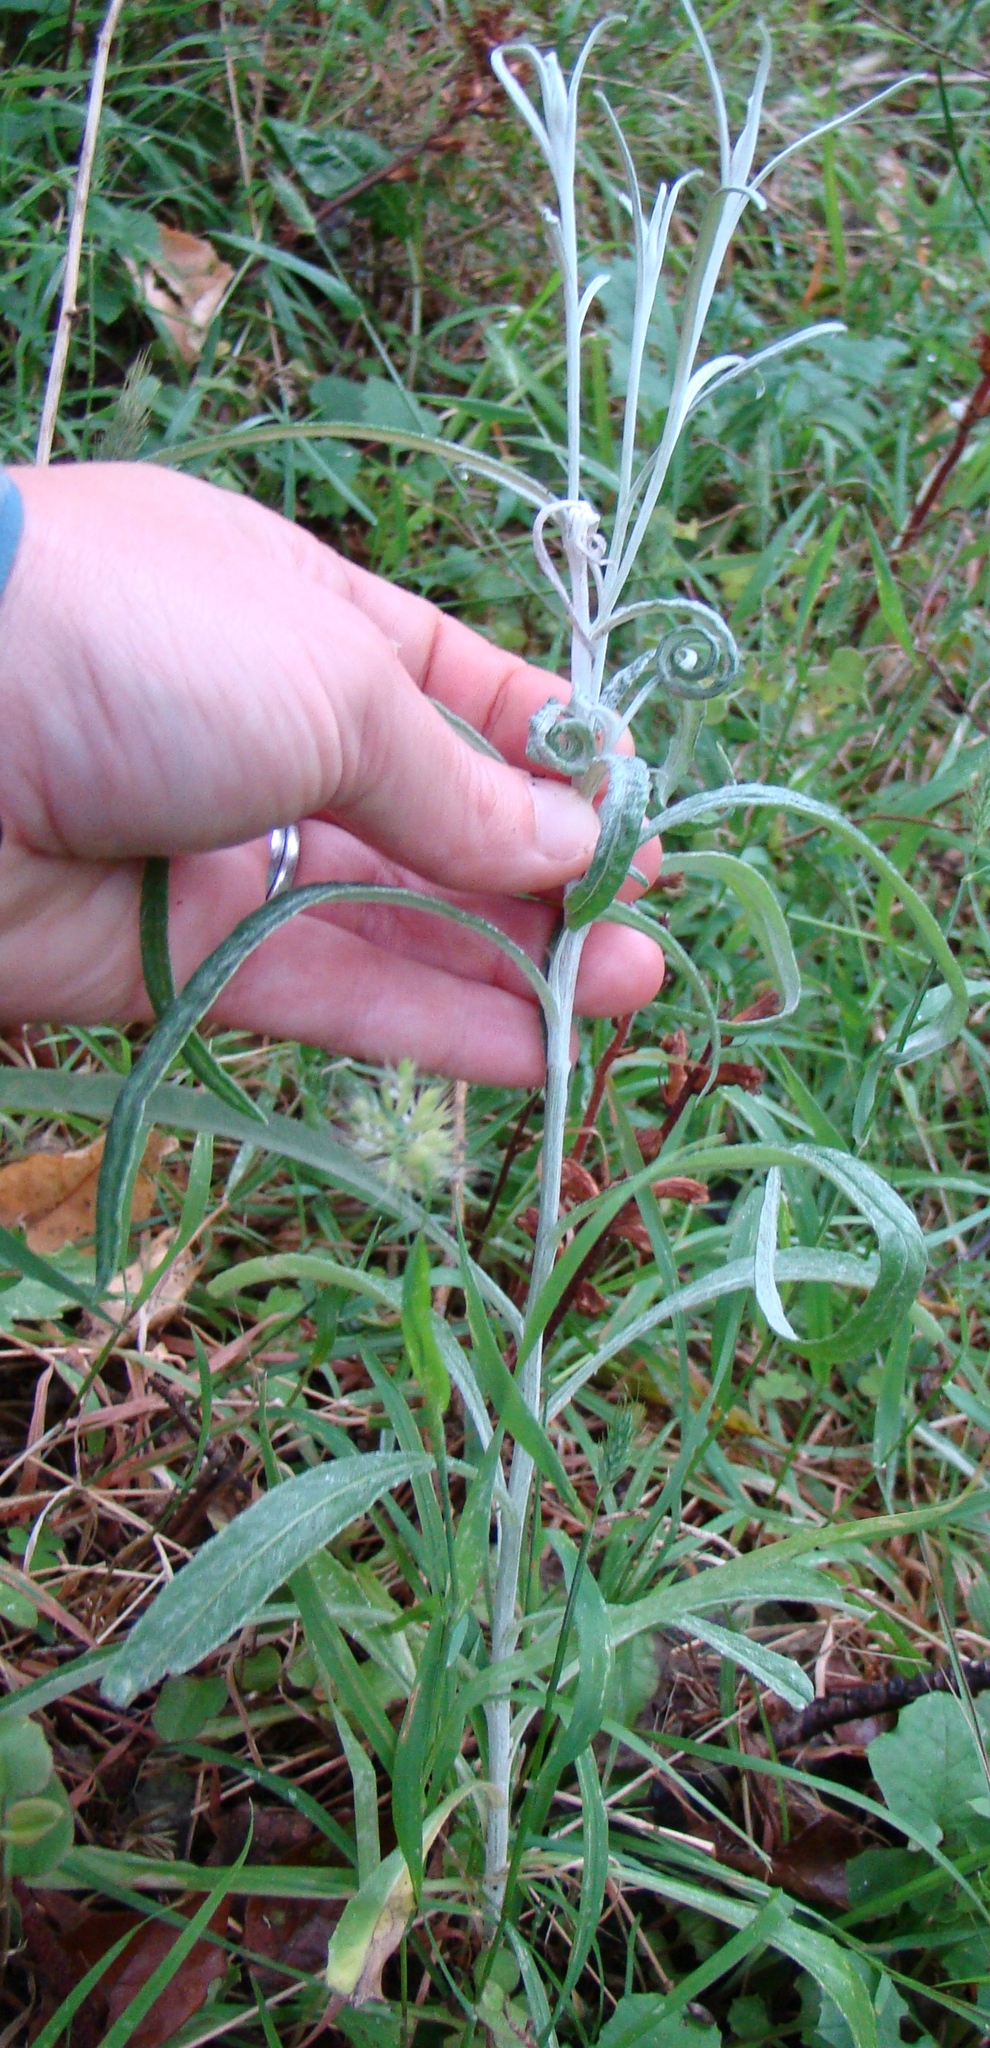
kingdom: Plantae
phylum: Tracheophyta
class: Magnoliopsida
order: Asterales
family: Asteraceae
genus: Senecio
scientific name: Senecio quadridentatus
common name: Cotton fireweed
